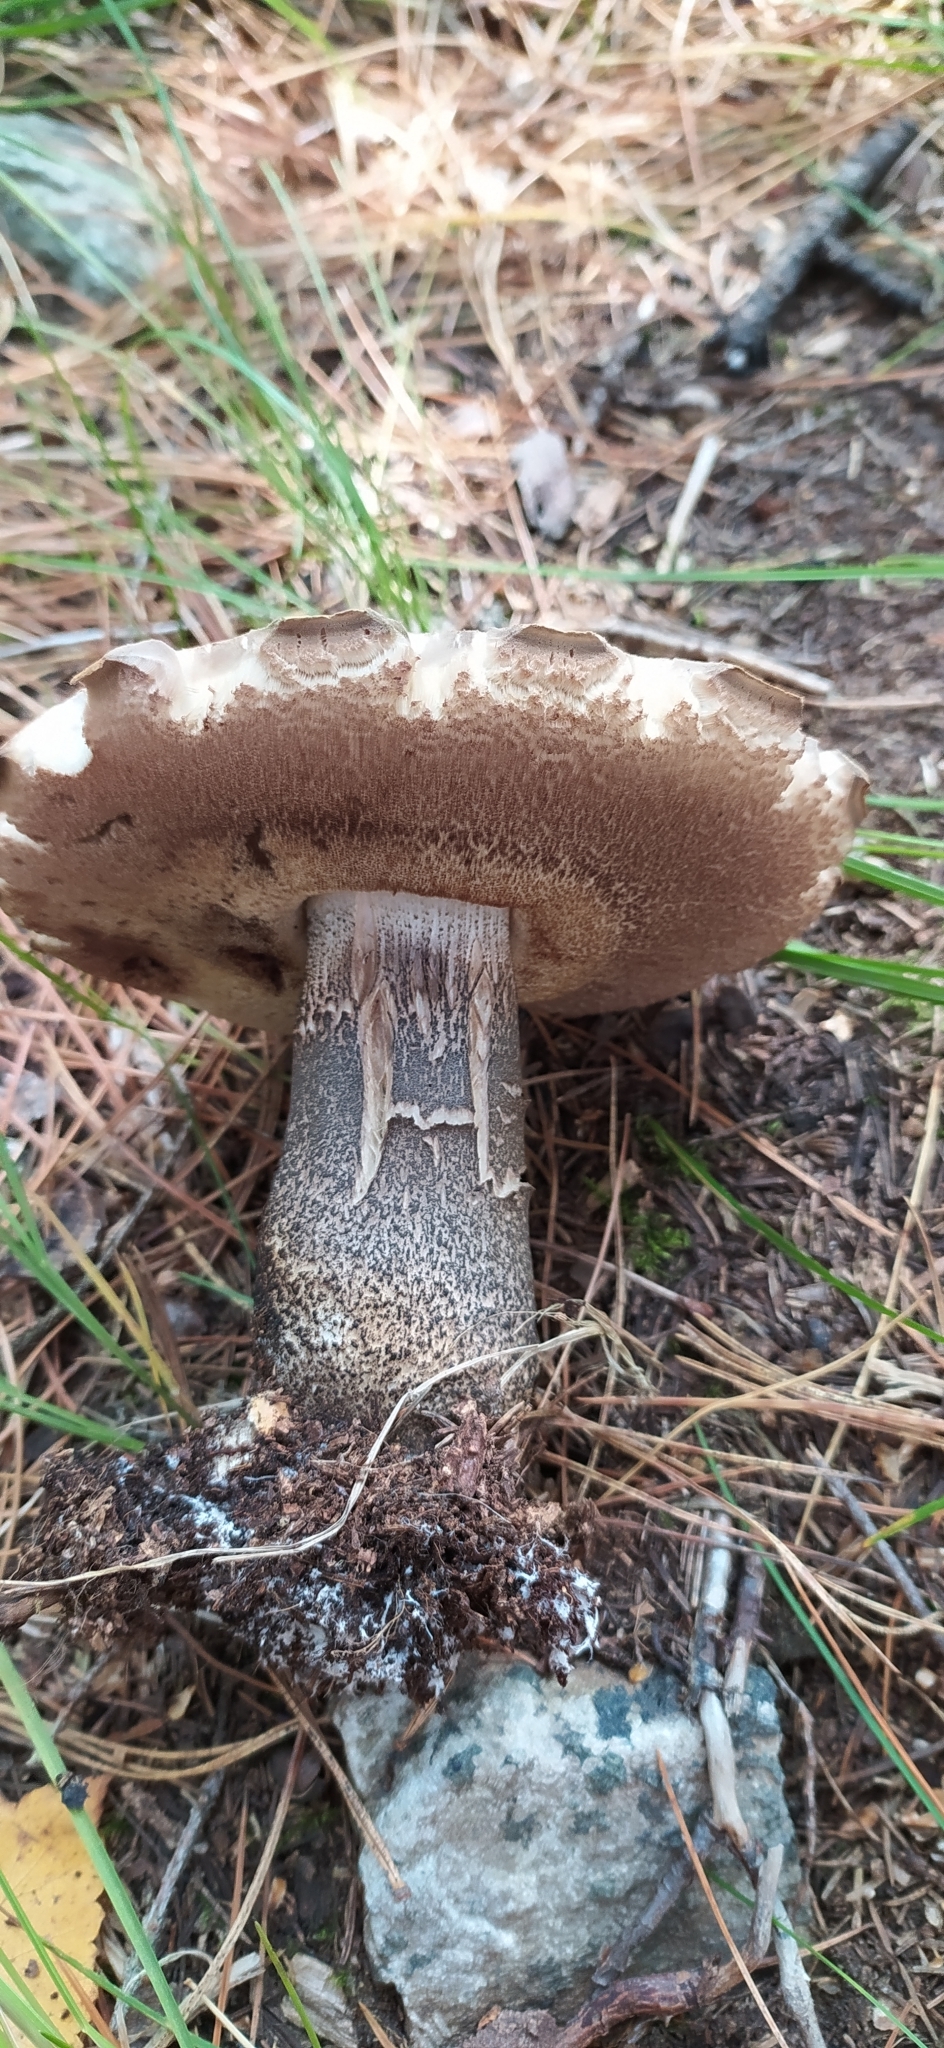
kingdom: Fungi
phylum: Basidiomycota
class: Agaricomycetes
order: Boletales
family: Boletaceae
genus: Leccinum
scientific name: Leccinum scabrum
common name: Blushing bolete
